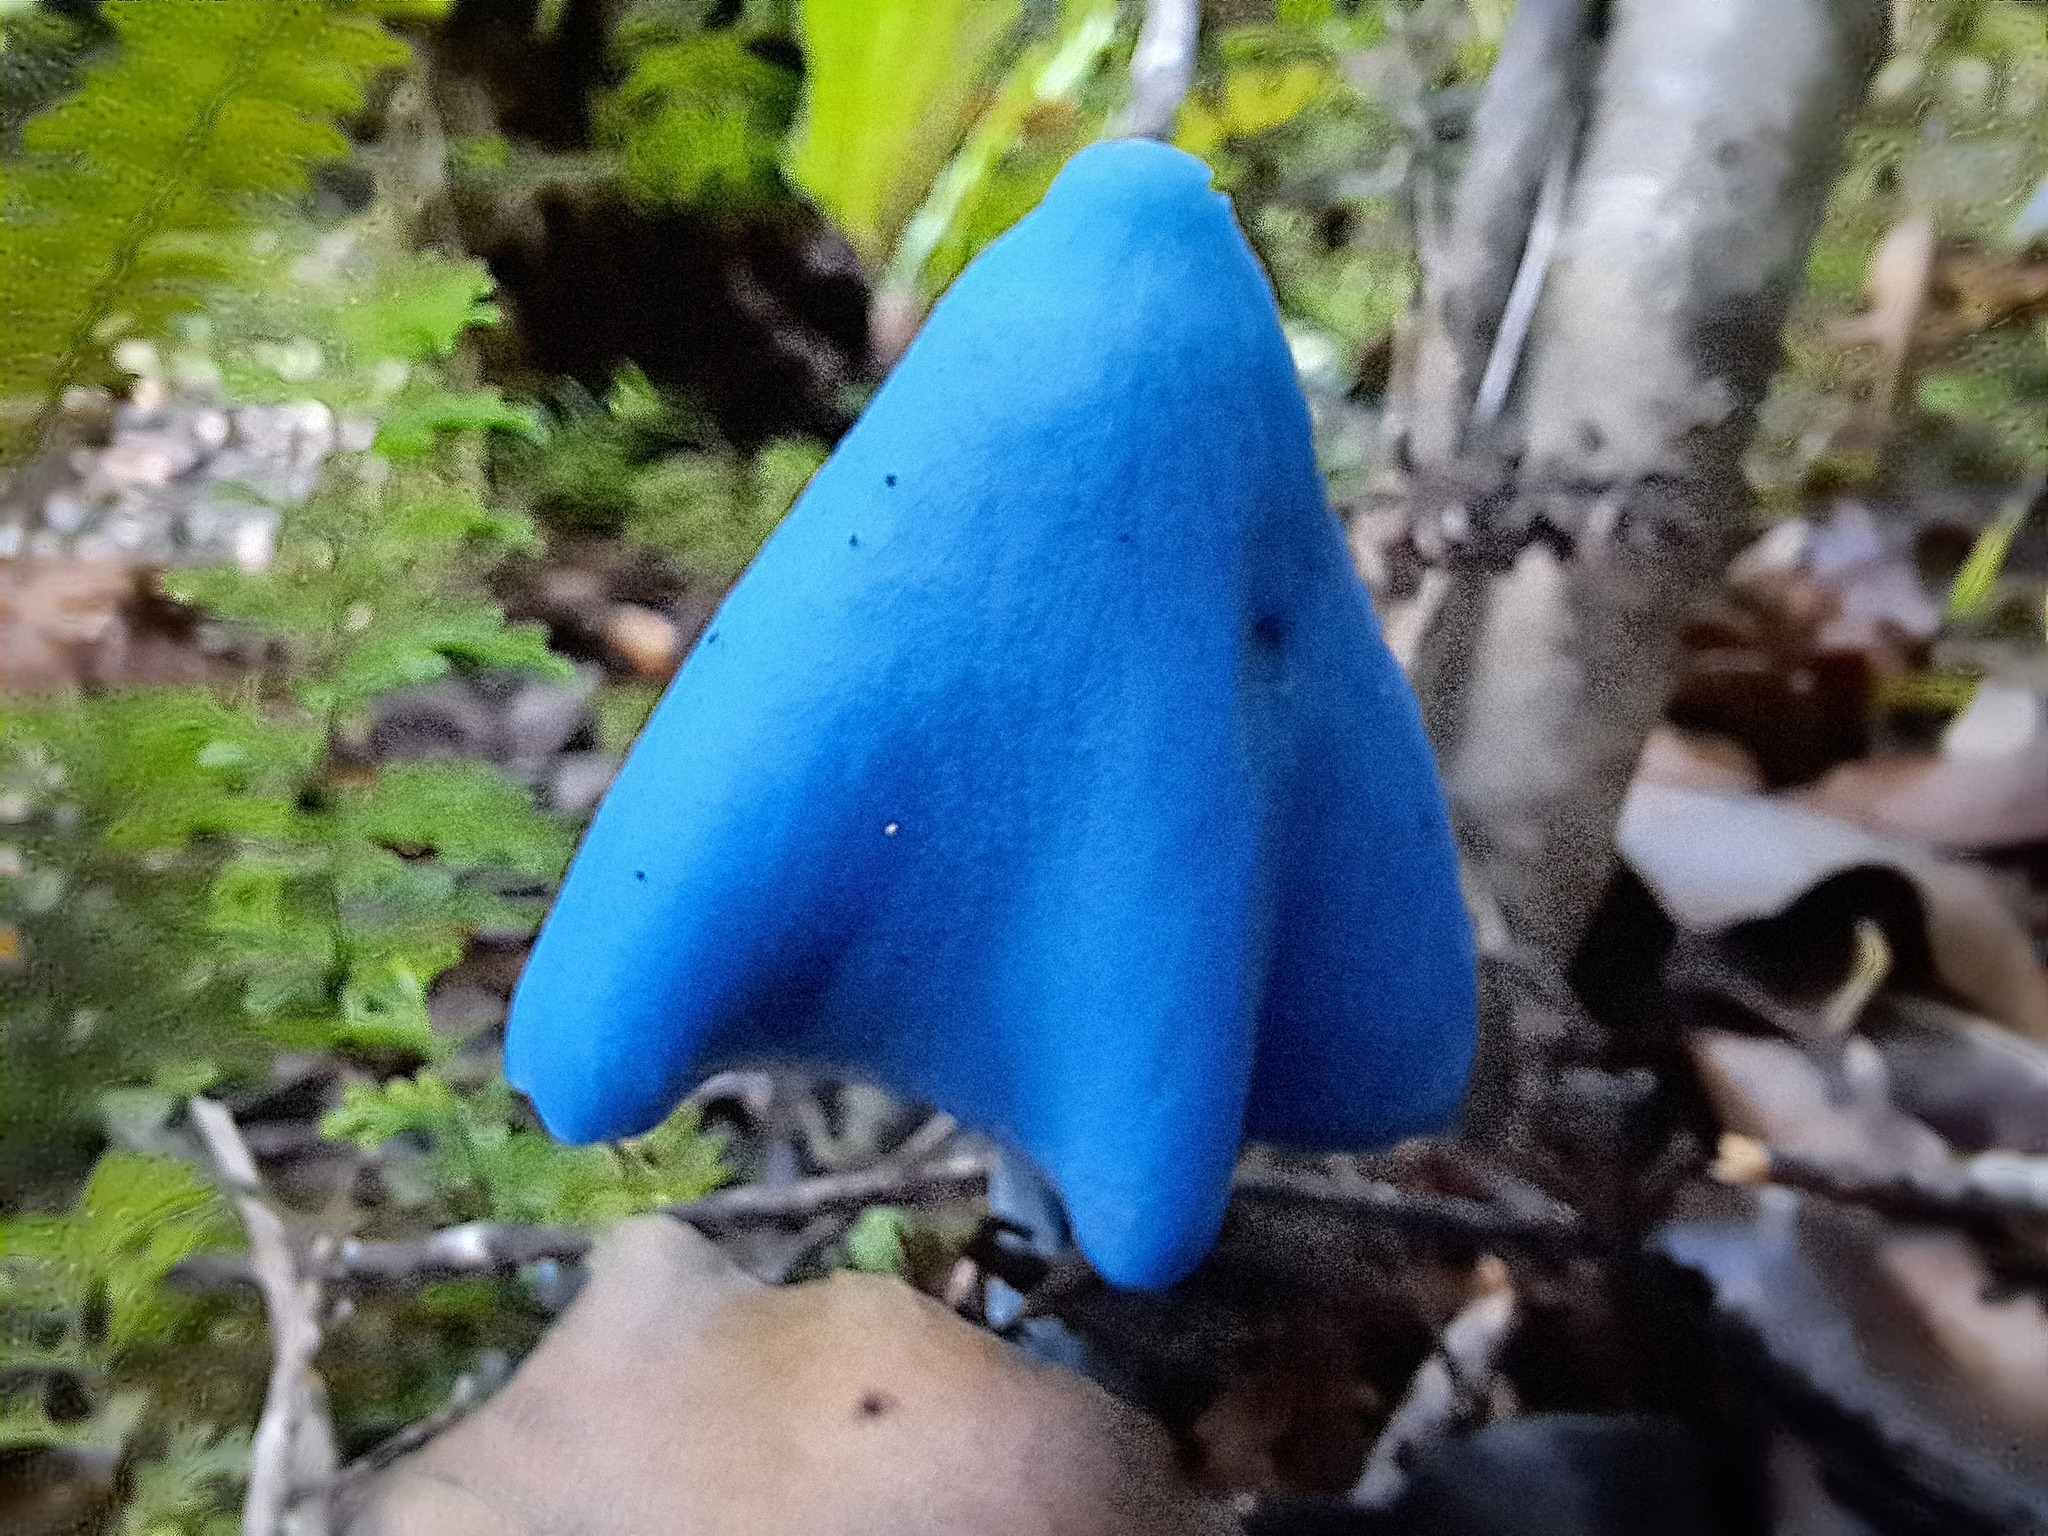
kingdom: Fungi
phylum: Basidiomycota
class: Agaricomycetes
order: Agaricales
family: Entolomataceae
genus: Entoloma
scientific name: Entoloma hochstetteri
